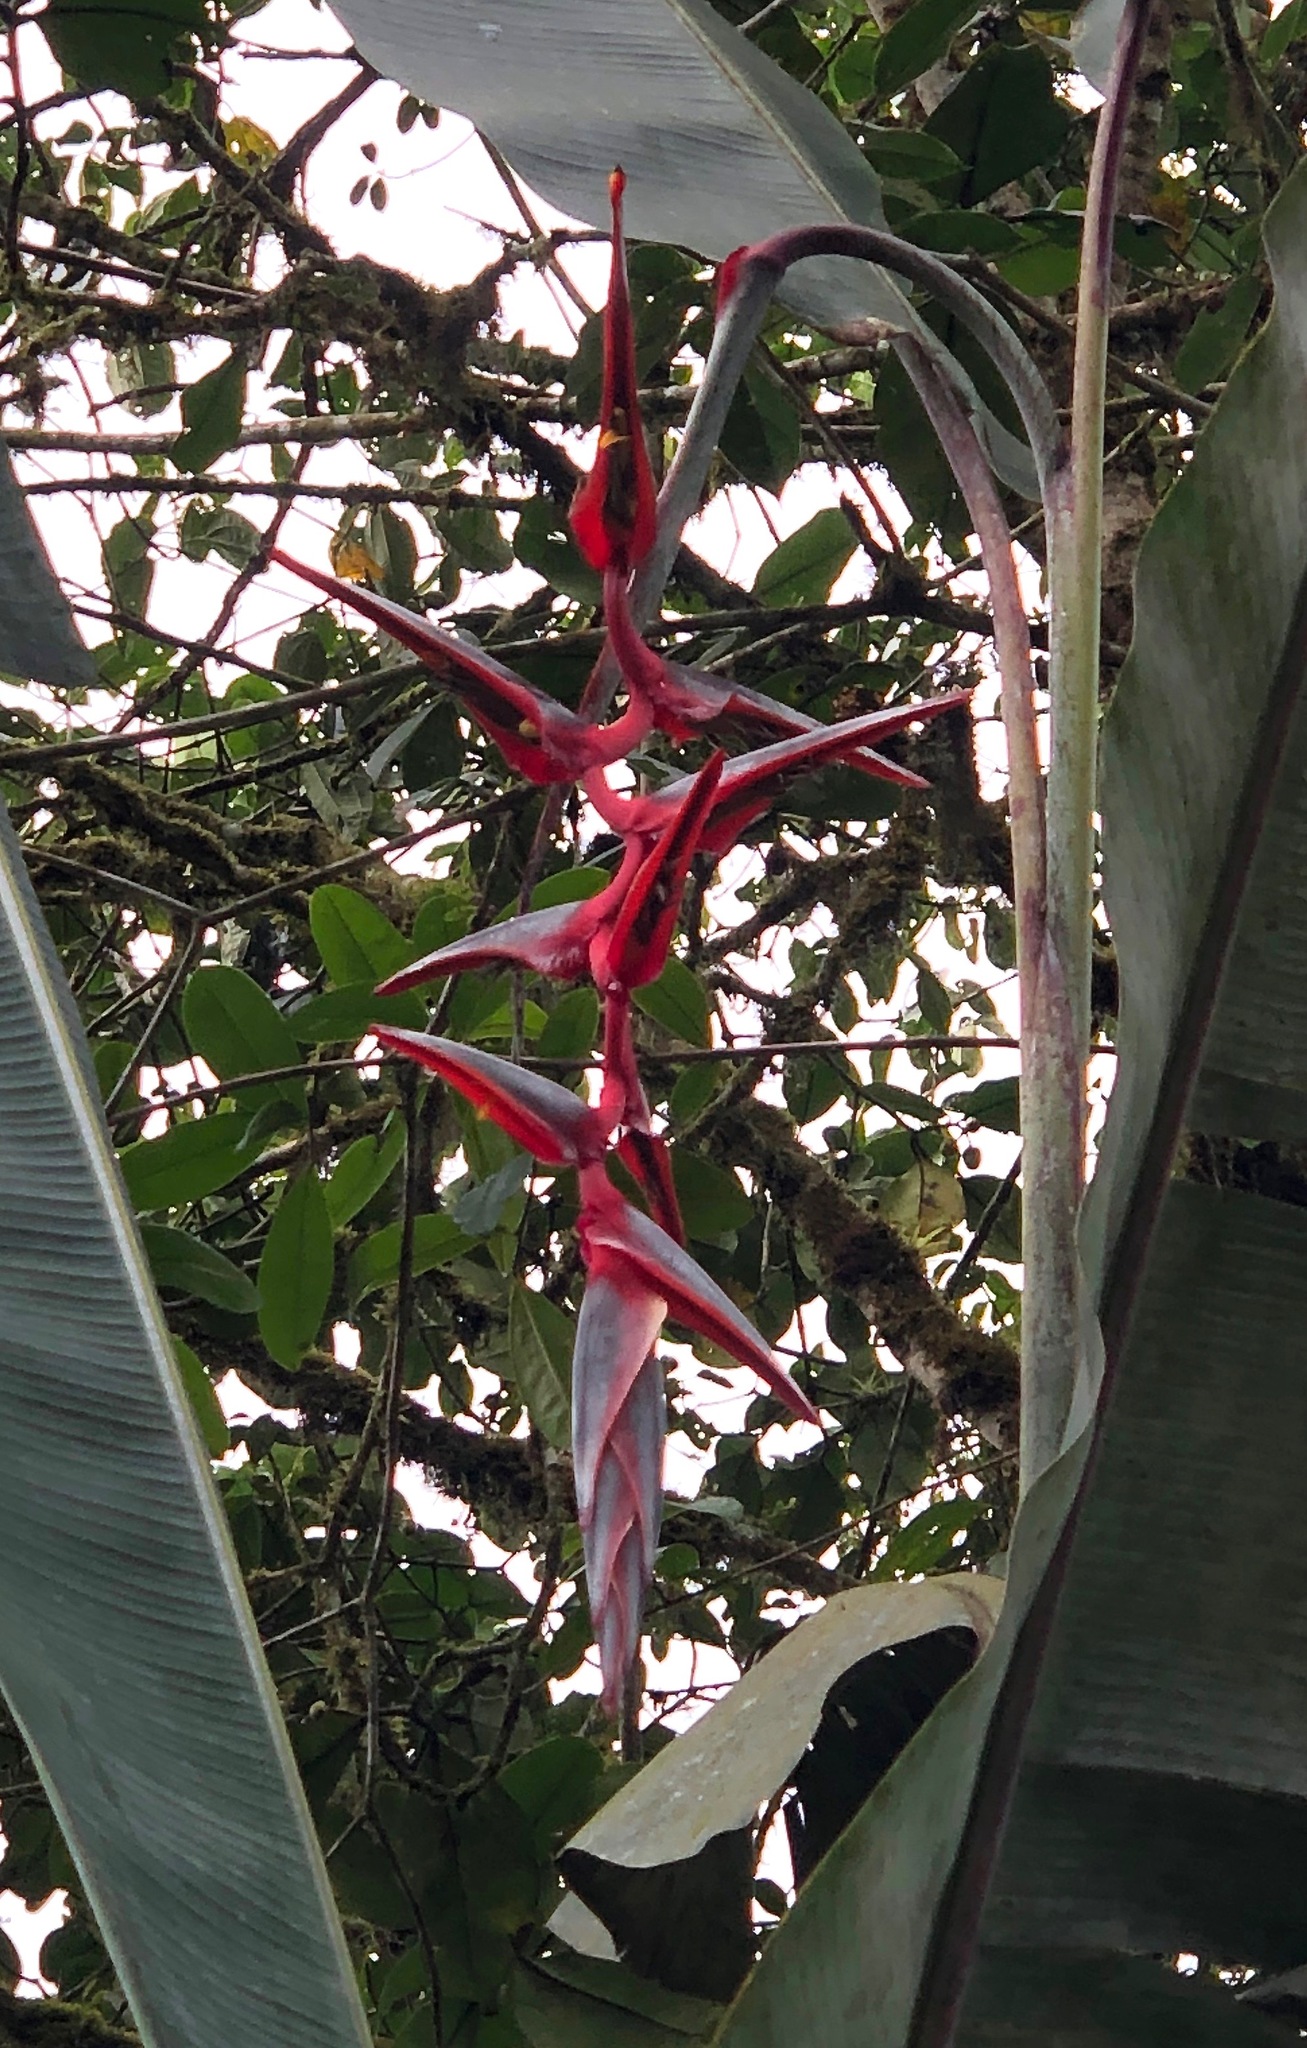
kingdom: Plantae
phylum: Tracheophyta
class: Liliopsida
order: Zingiberales
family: Heliconiaceae
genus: Heliconia
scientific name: Heliconia griggsiana
